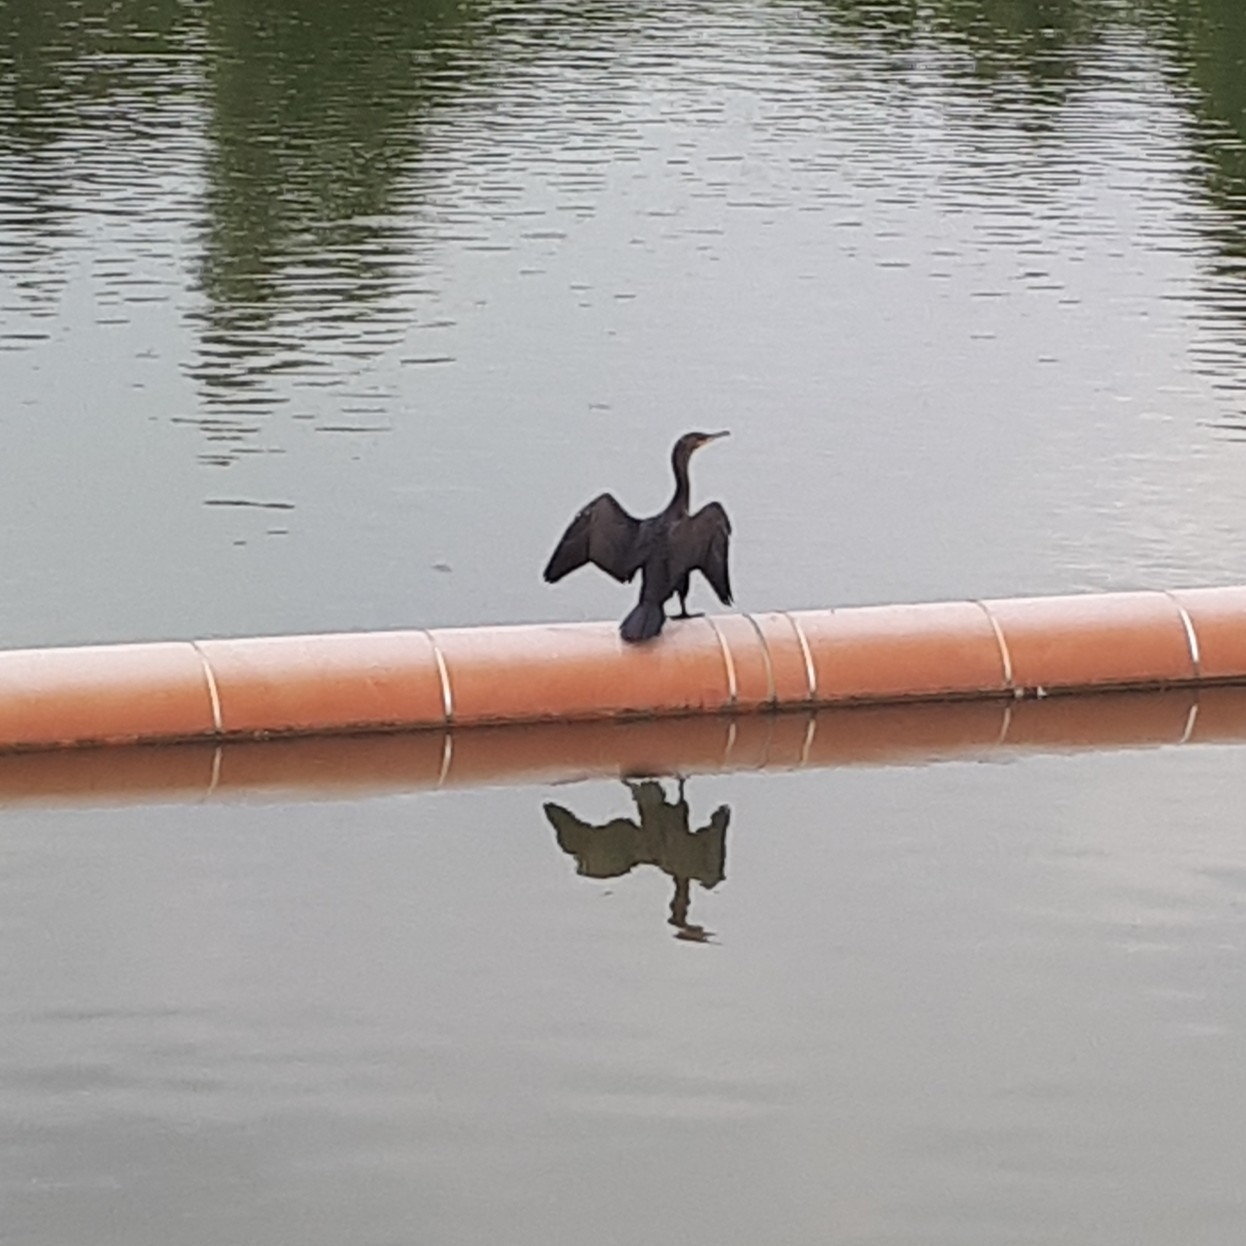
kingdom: Animalia
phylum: Chordata
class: Aves
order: Suliformes
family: Phalacrocoracidae
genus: Phalacrocorax
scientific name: Phalacrocorax auritus
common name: Double-crested cormorant
